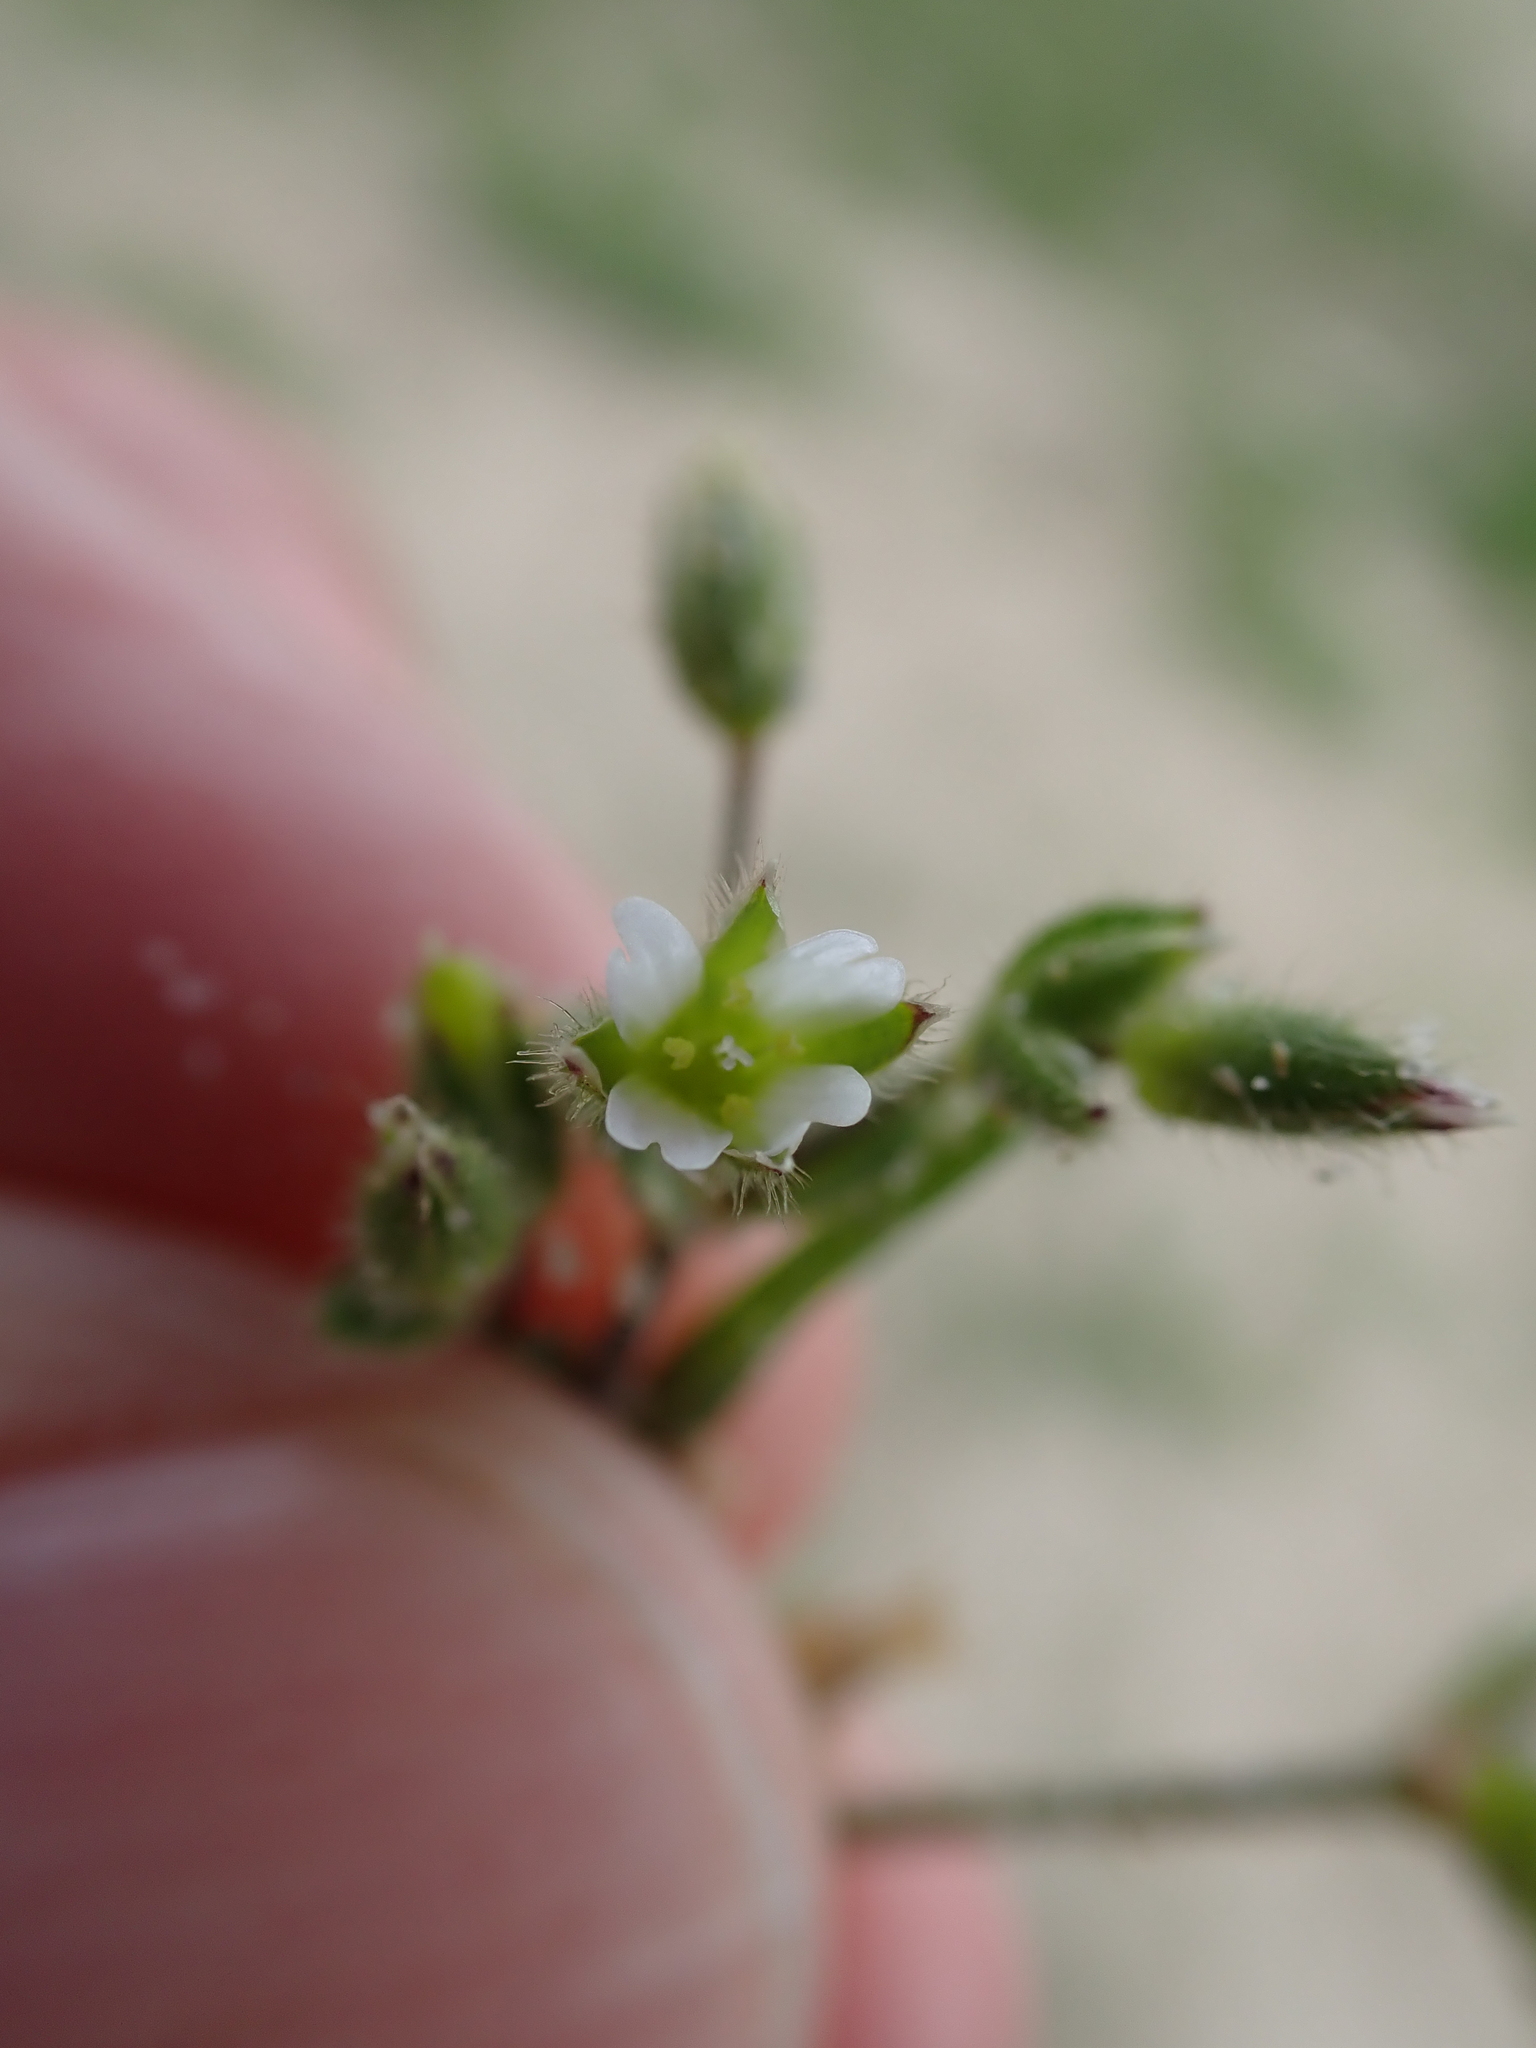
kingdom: Plantae
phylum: Tracheophyta
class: Magnoliopsida
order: Caryophyllales
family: Caryophyllaceae
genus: Cerastium
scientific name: Cerastium diffusum
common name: Fourstamen chickweed
